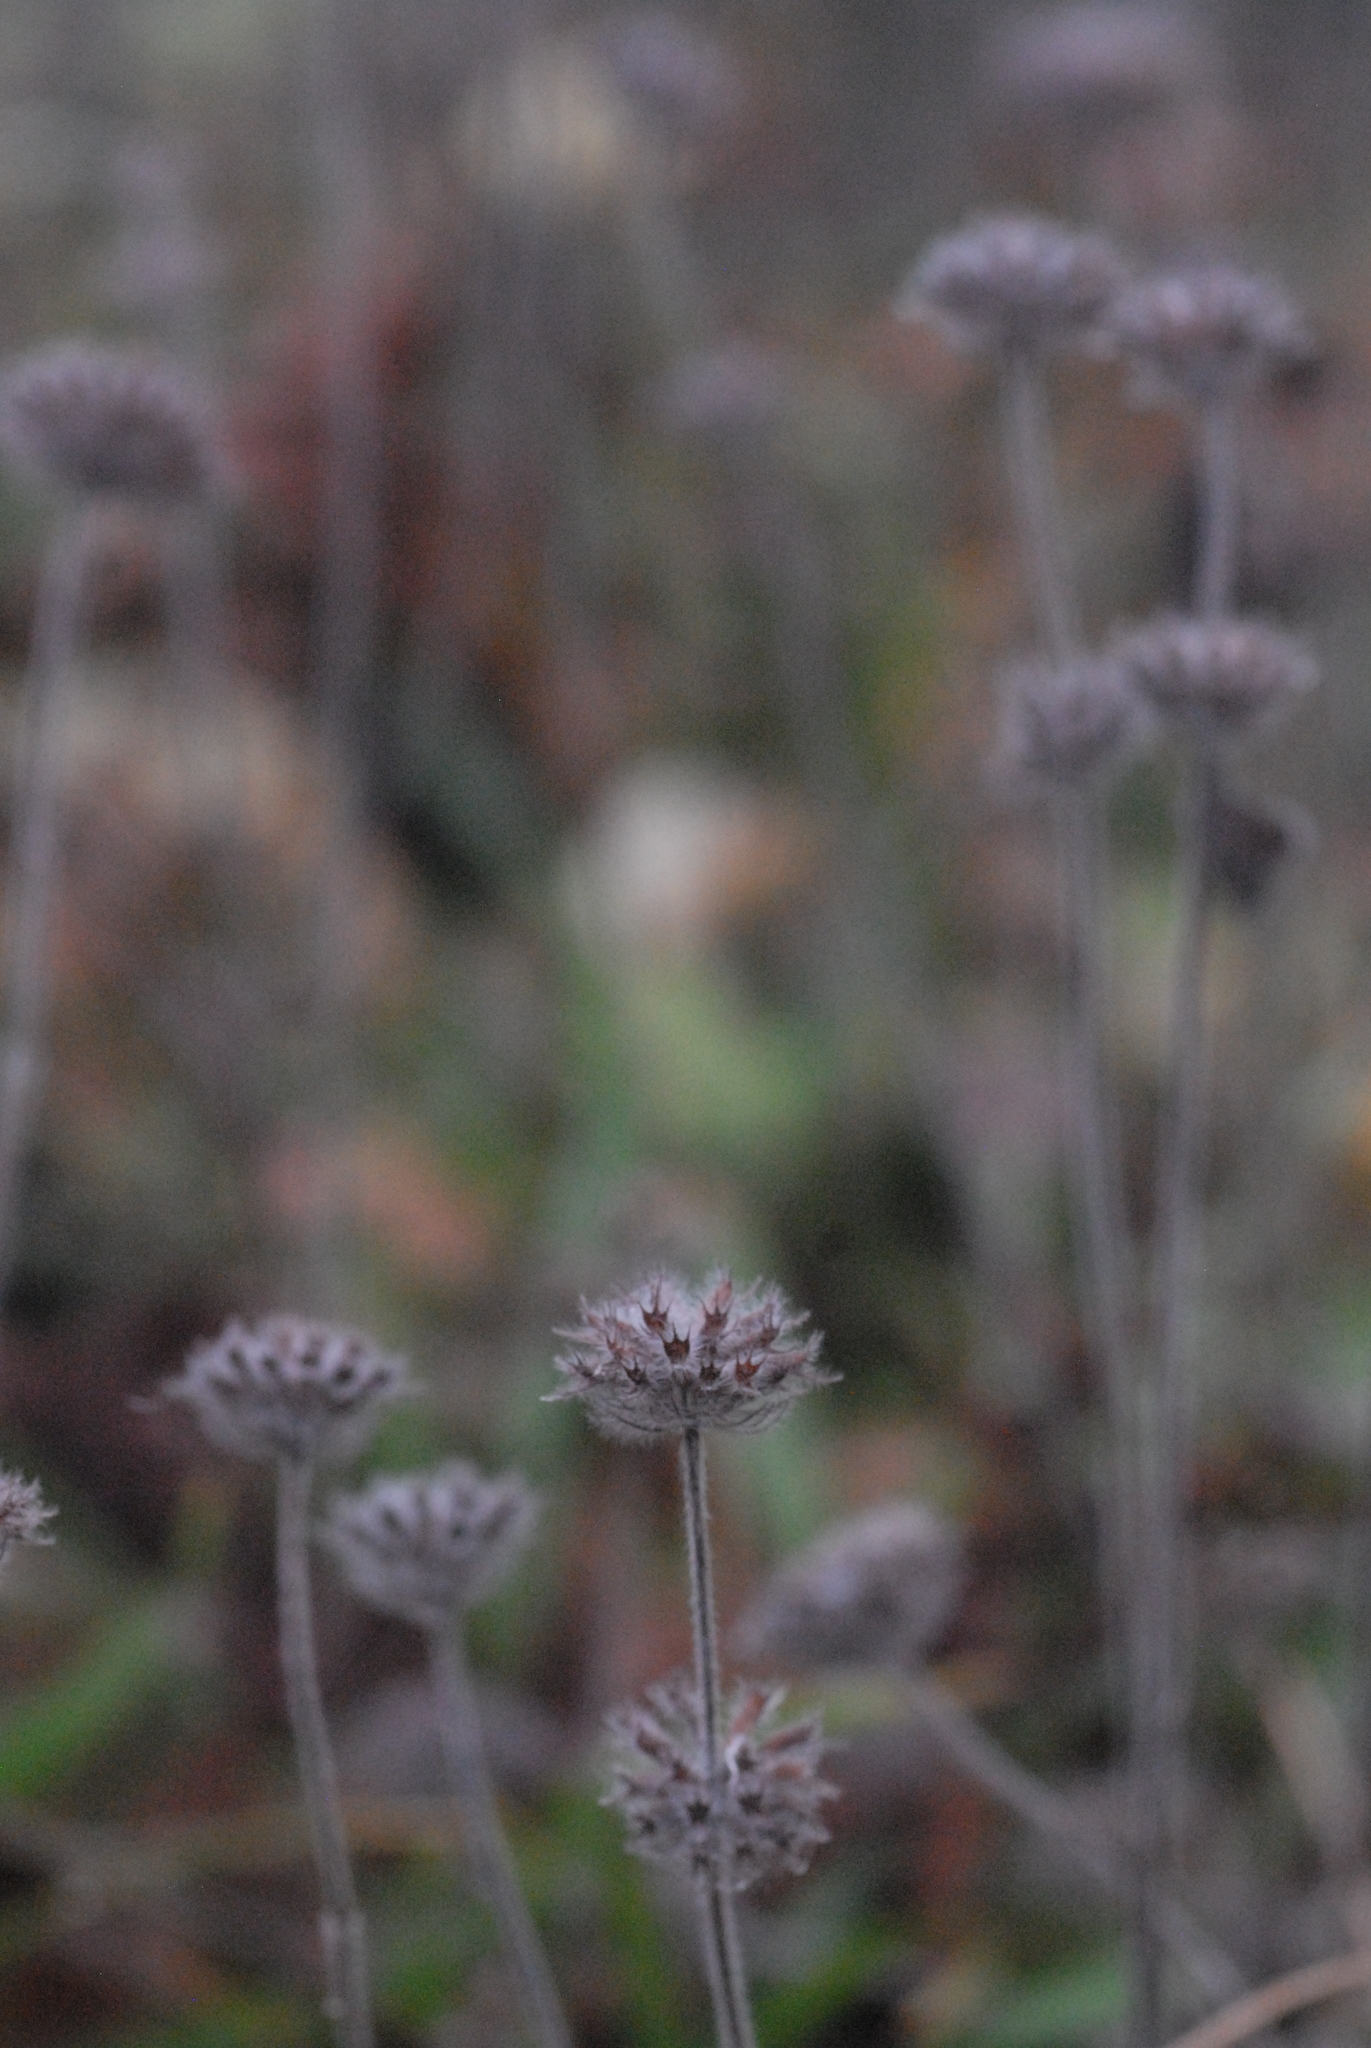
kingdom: Plantae
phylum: Tracheophyta
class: Magnoliopsida
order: Lamiales
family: Lamiaceae
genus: Clinopodium
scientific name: Clinopodium vulgare
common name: Wild basil
